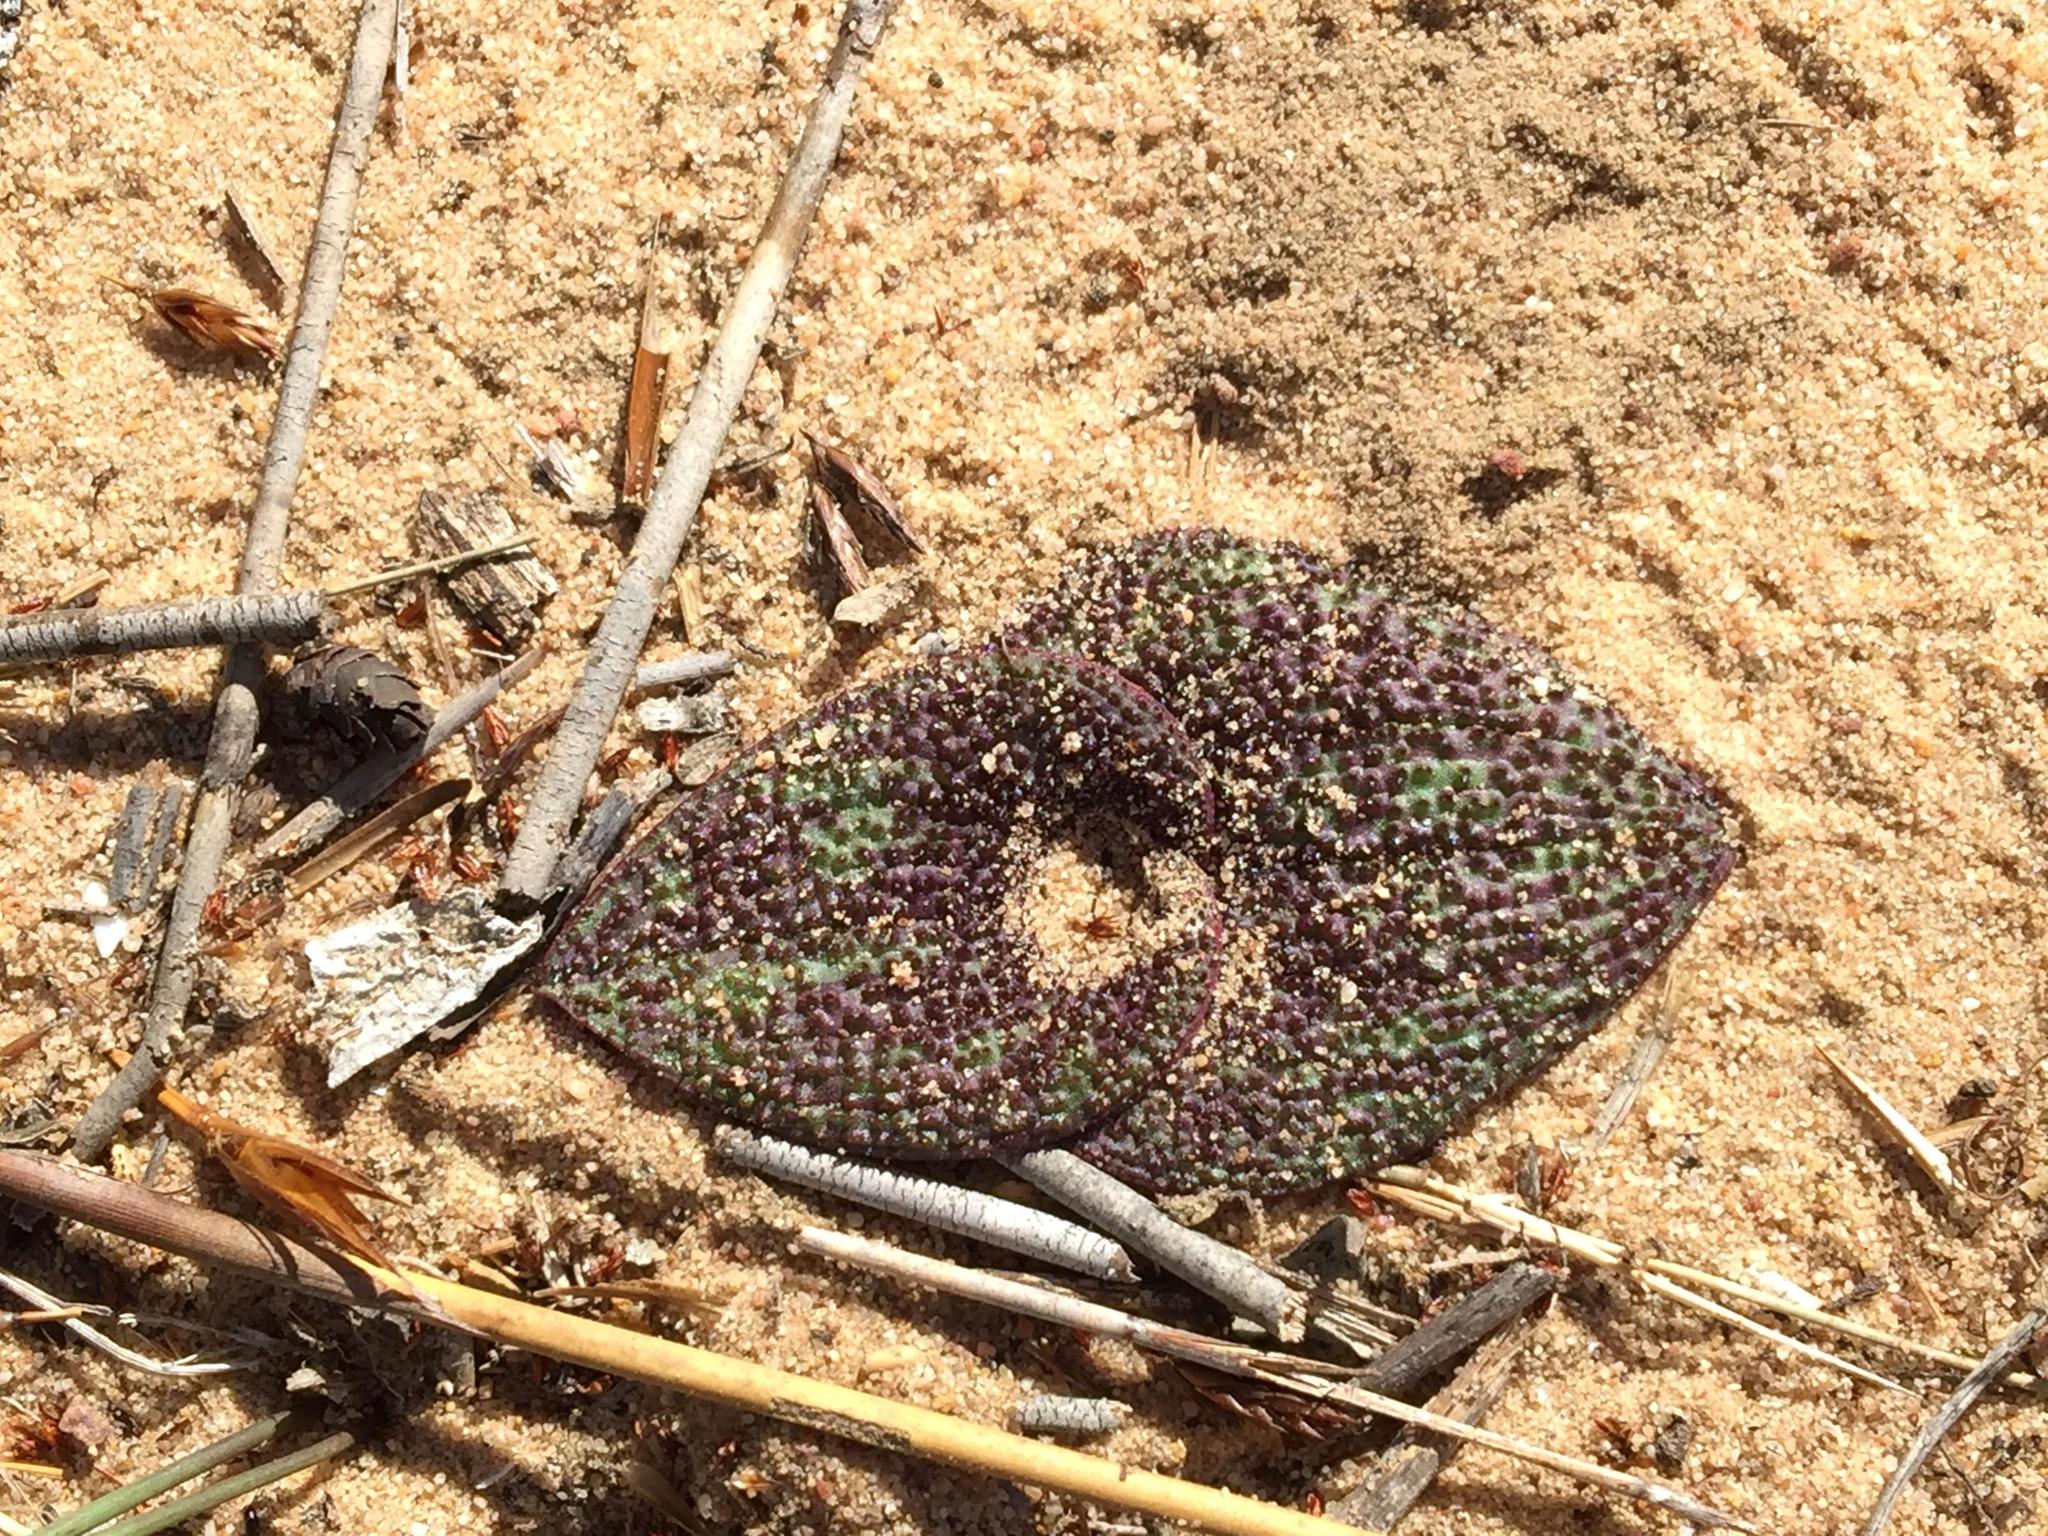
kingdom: Plantae
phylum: Tracheophyta
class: Liliopsida
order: Asparagales
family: Asparagaceae
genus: Massonia
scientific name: Massonia longipes
